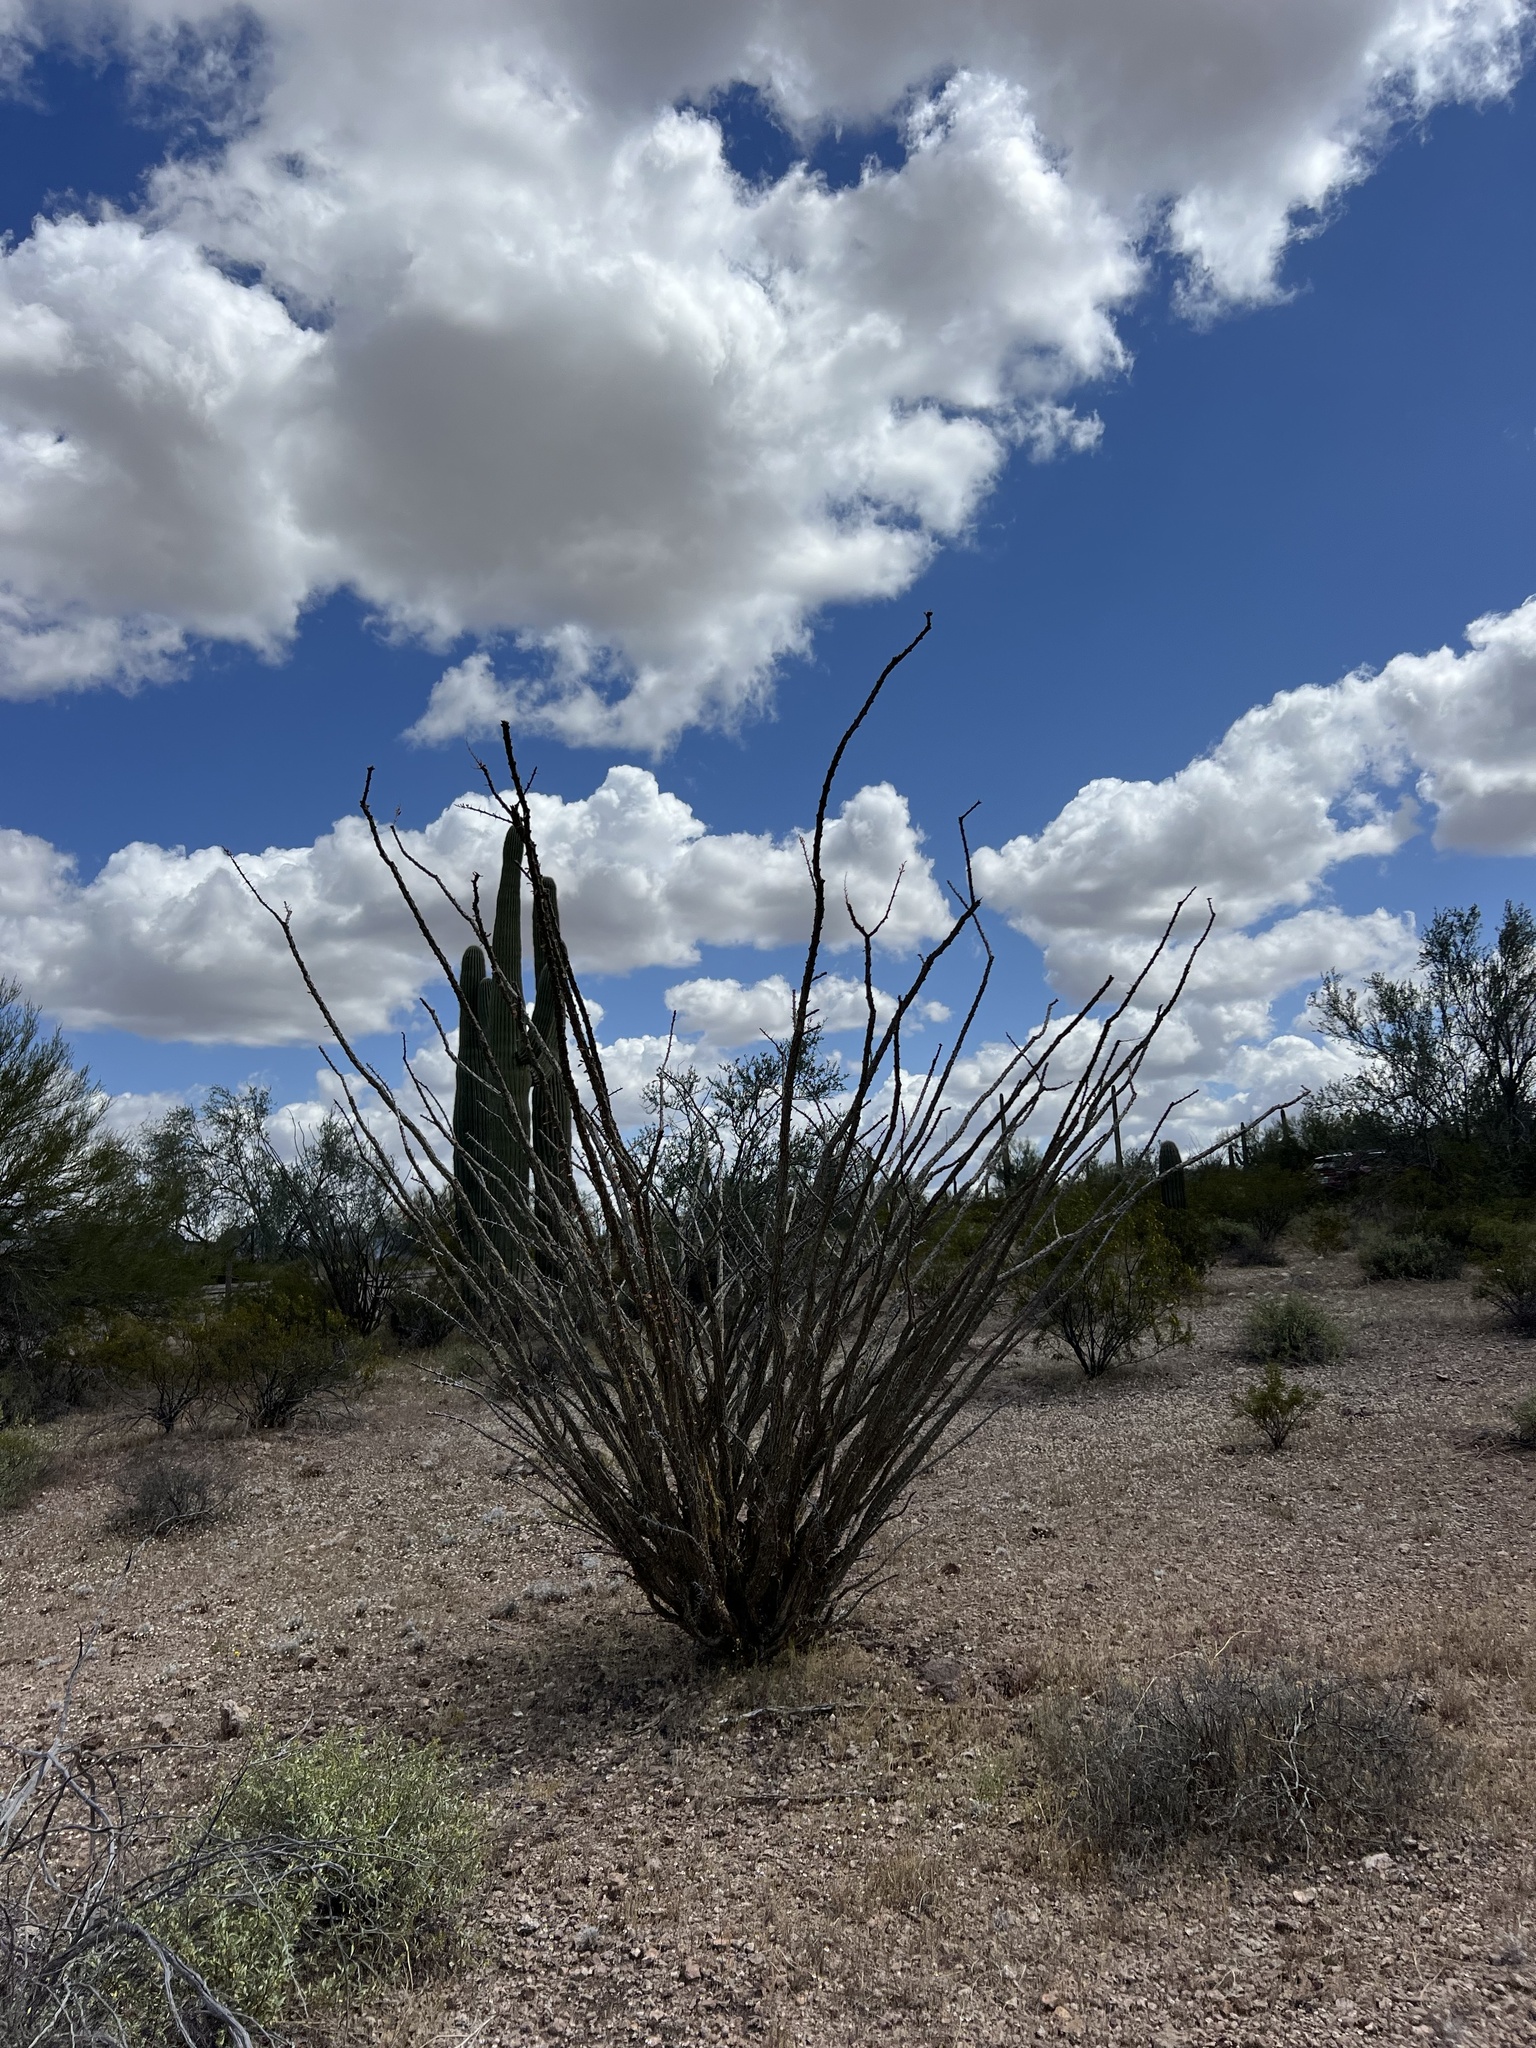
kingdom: Plantae
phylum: Tracheophyta
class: Magnoliopsida
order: Ericales
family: Fouquieriaceae
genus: Fouquieria
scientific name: Fouquieria splendens
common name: Vine-cactus
